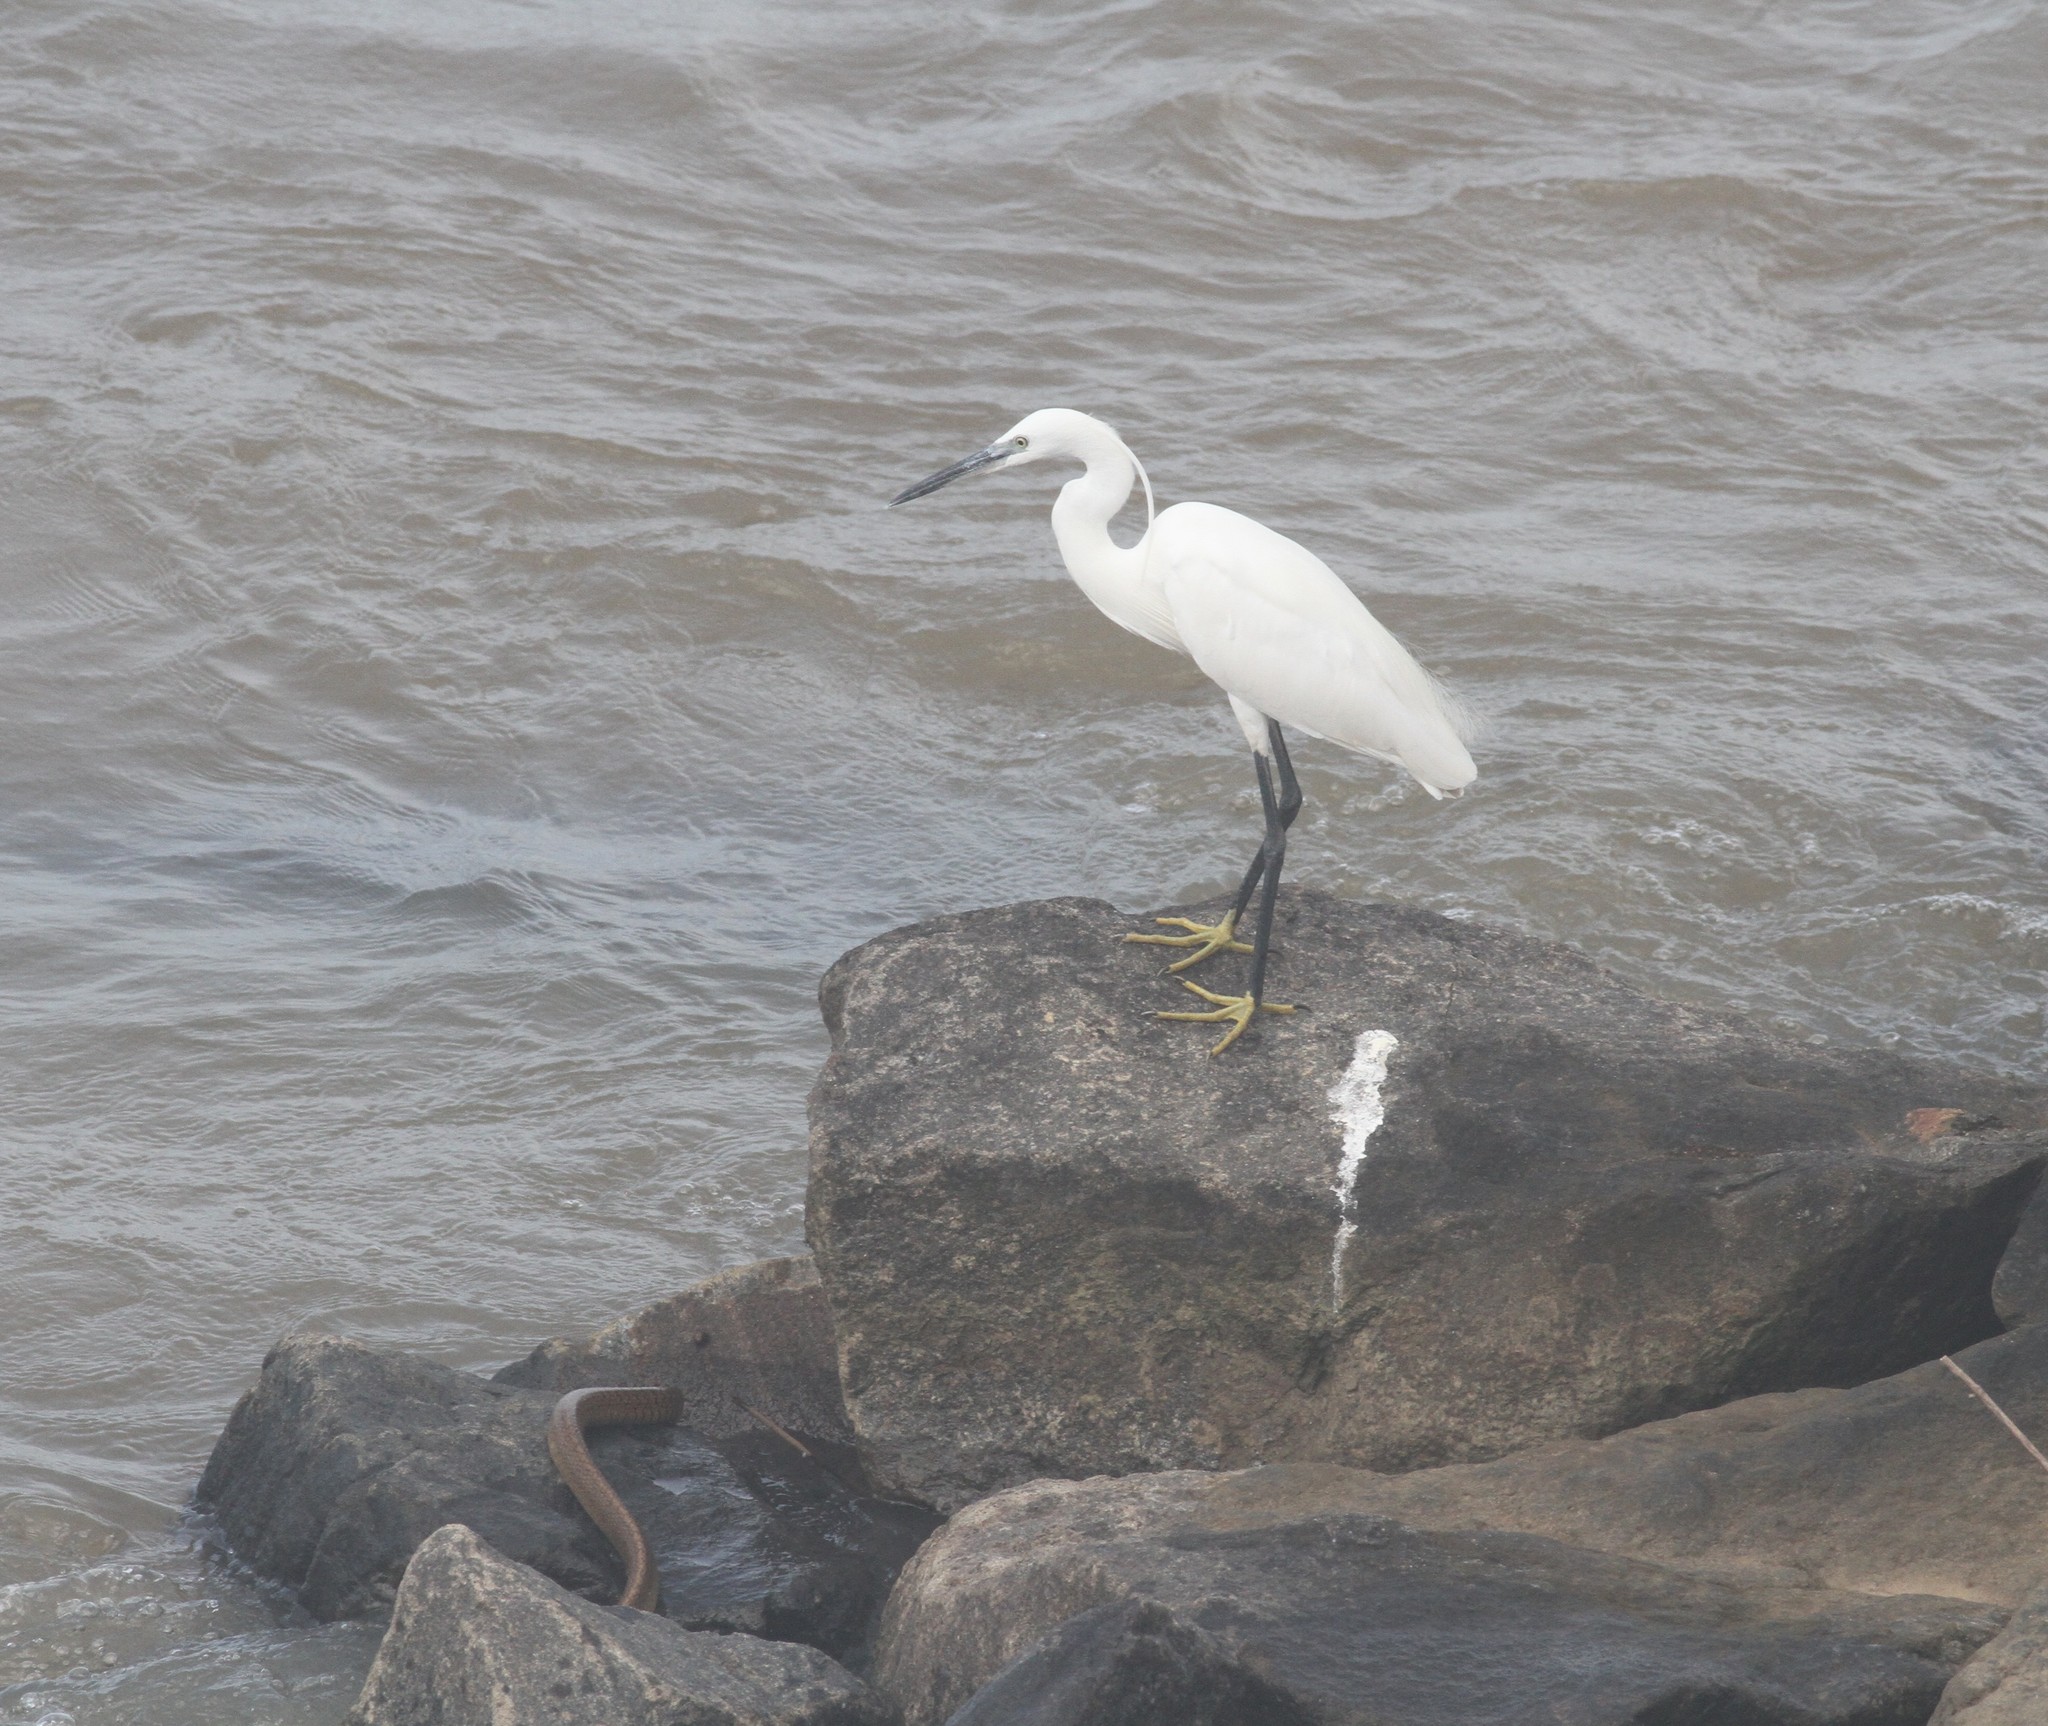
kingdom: Animalia
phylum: Chordata
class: Aves
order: Pelecaniformes
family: Ardeidae
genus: Egretta
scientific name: Egretta garzetta
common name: Little egret
